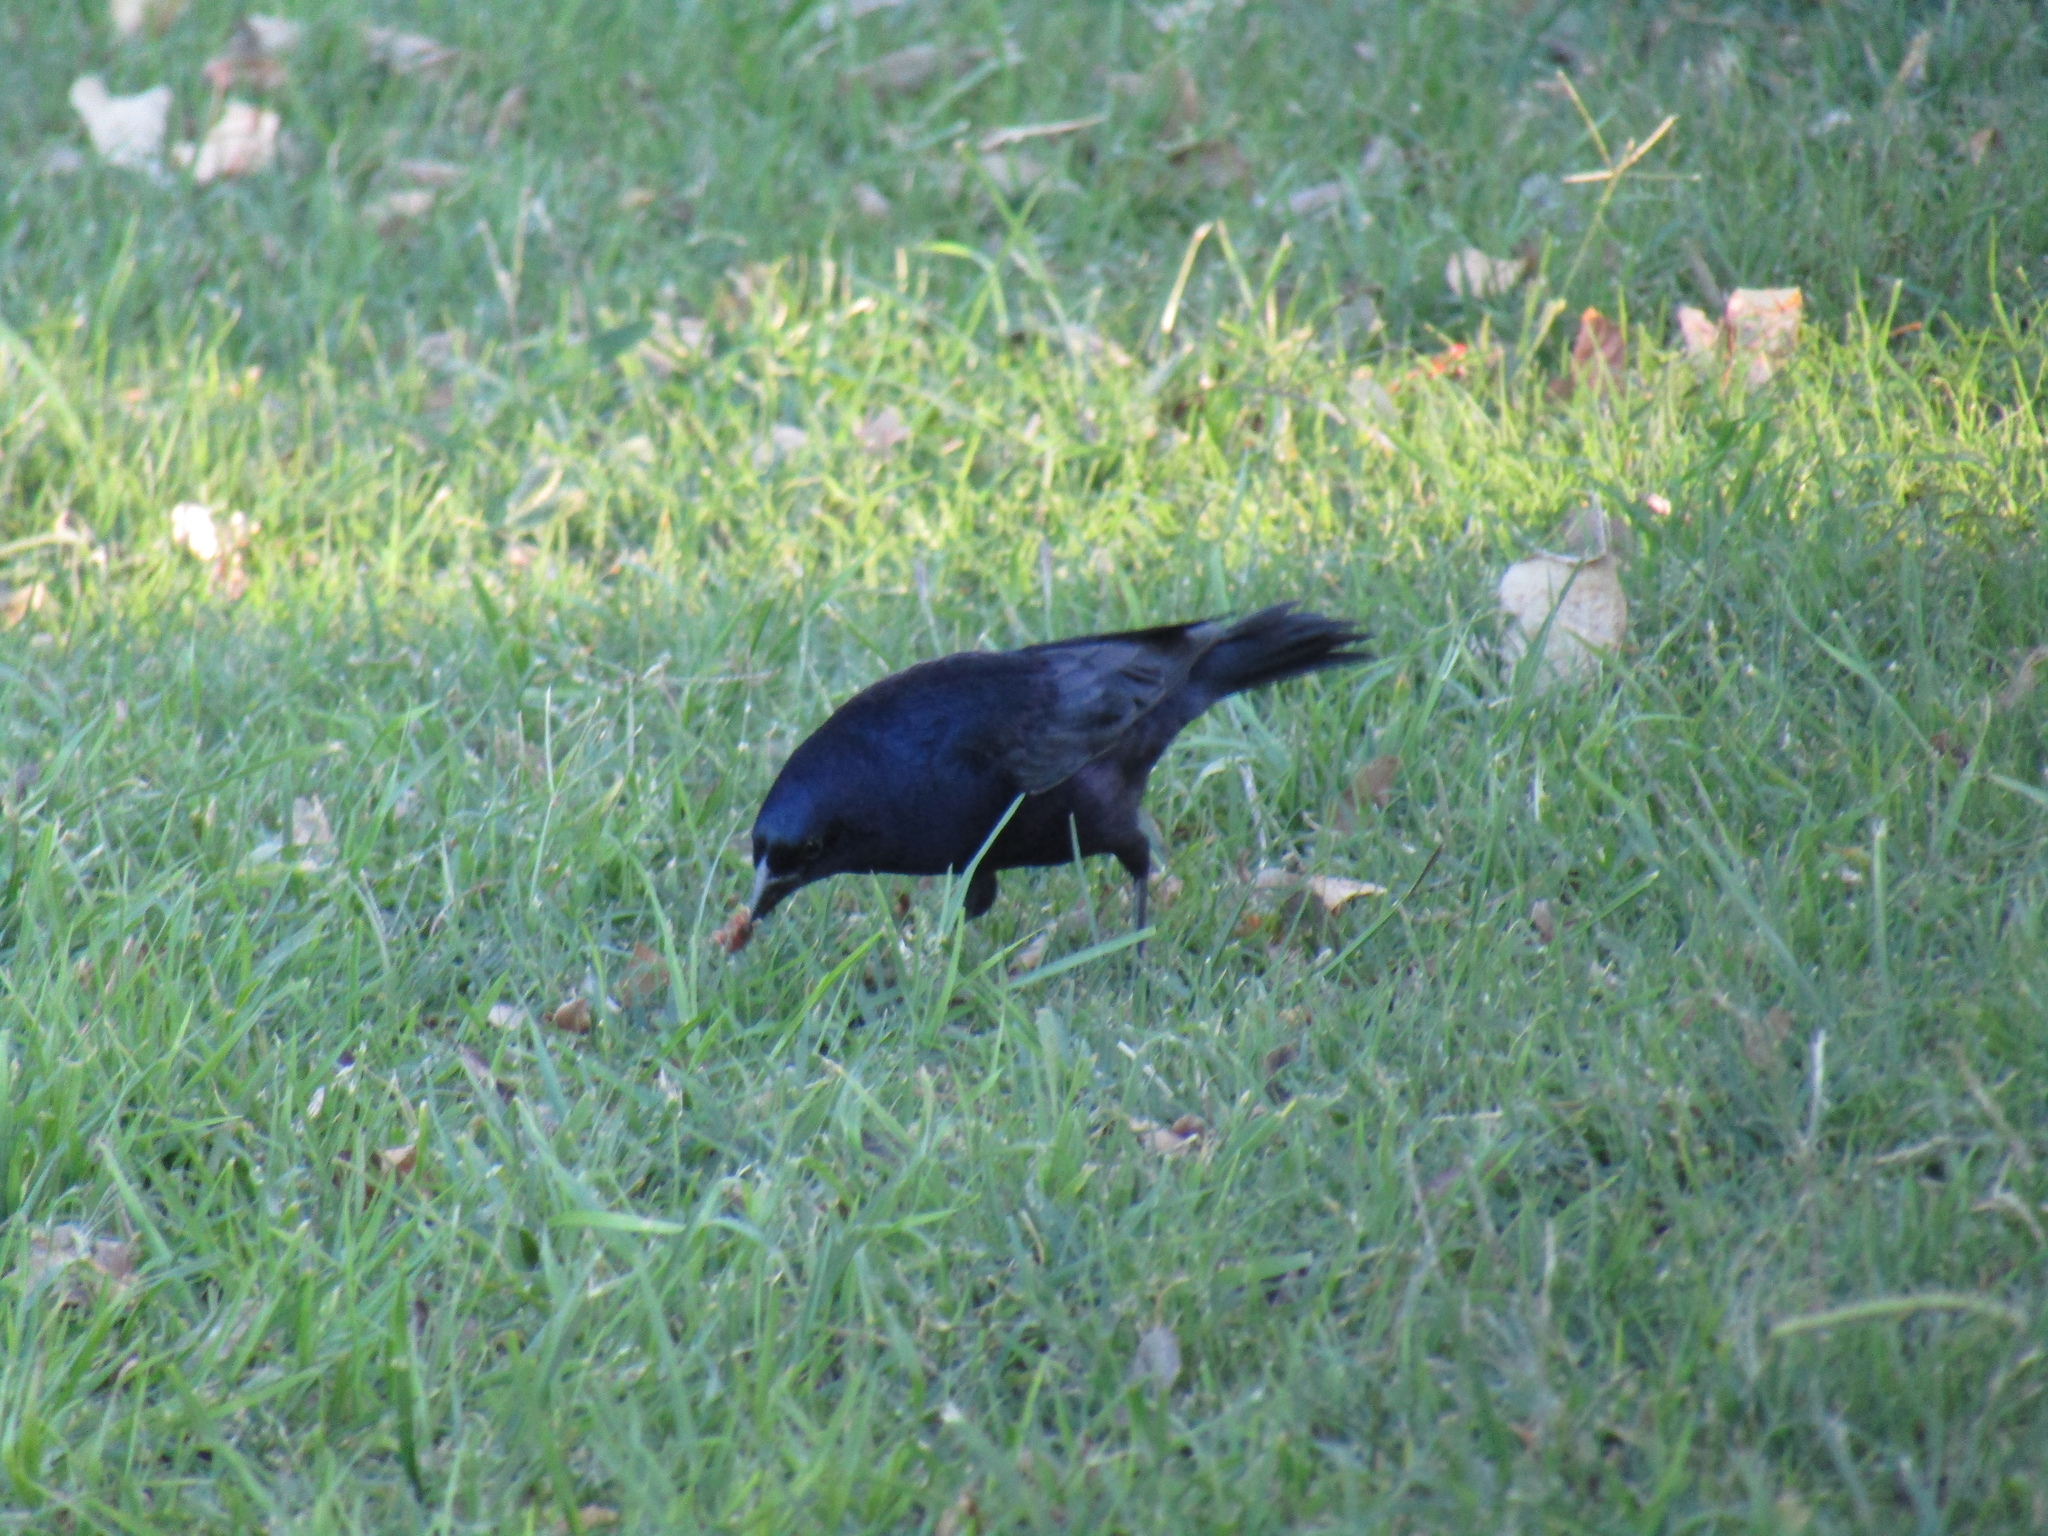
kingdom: Animalia
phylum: Chordata
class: Aves
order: Passeriformes
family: Icteridae
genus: Molothrus
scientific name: Molothrus bonariensis
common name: Shiny cowbird
